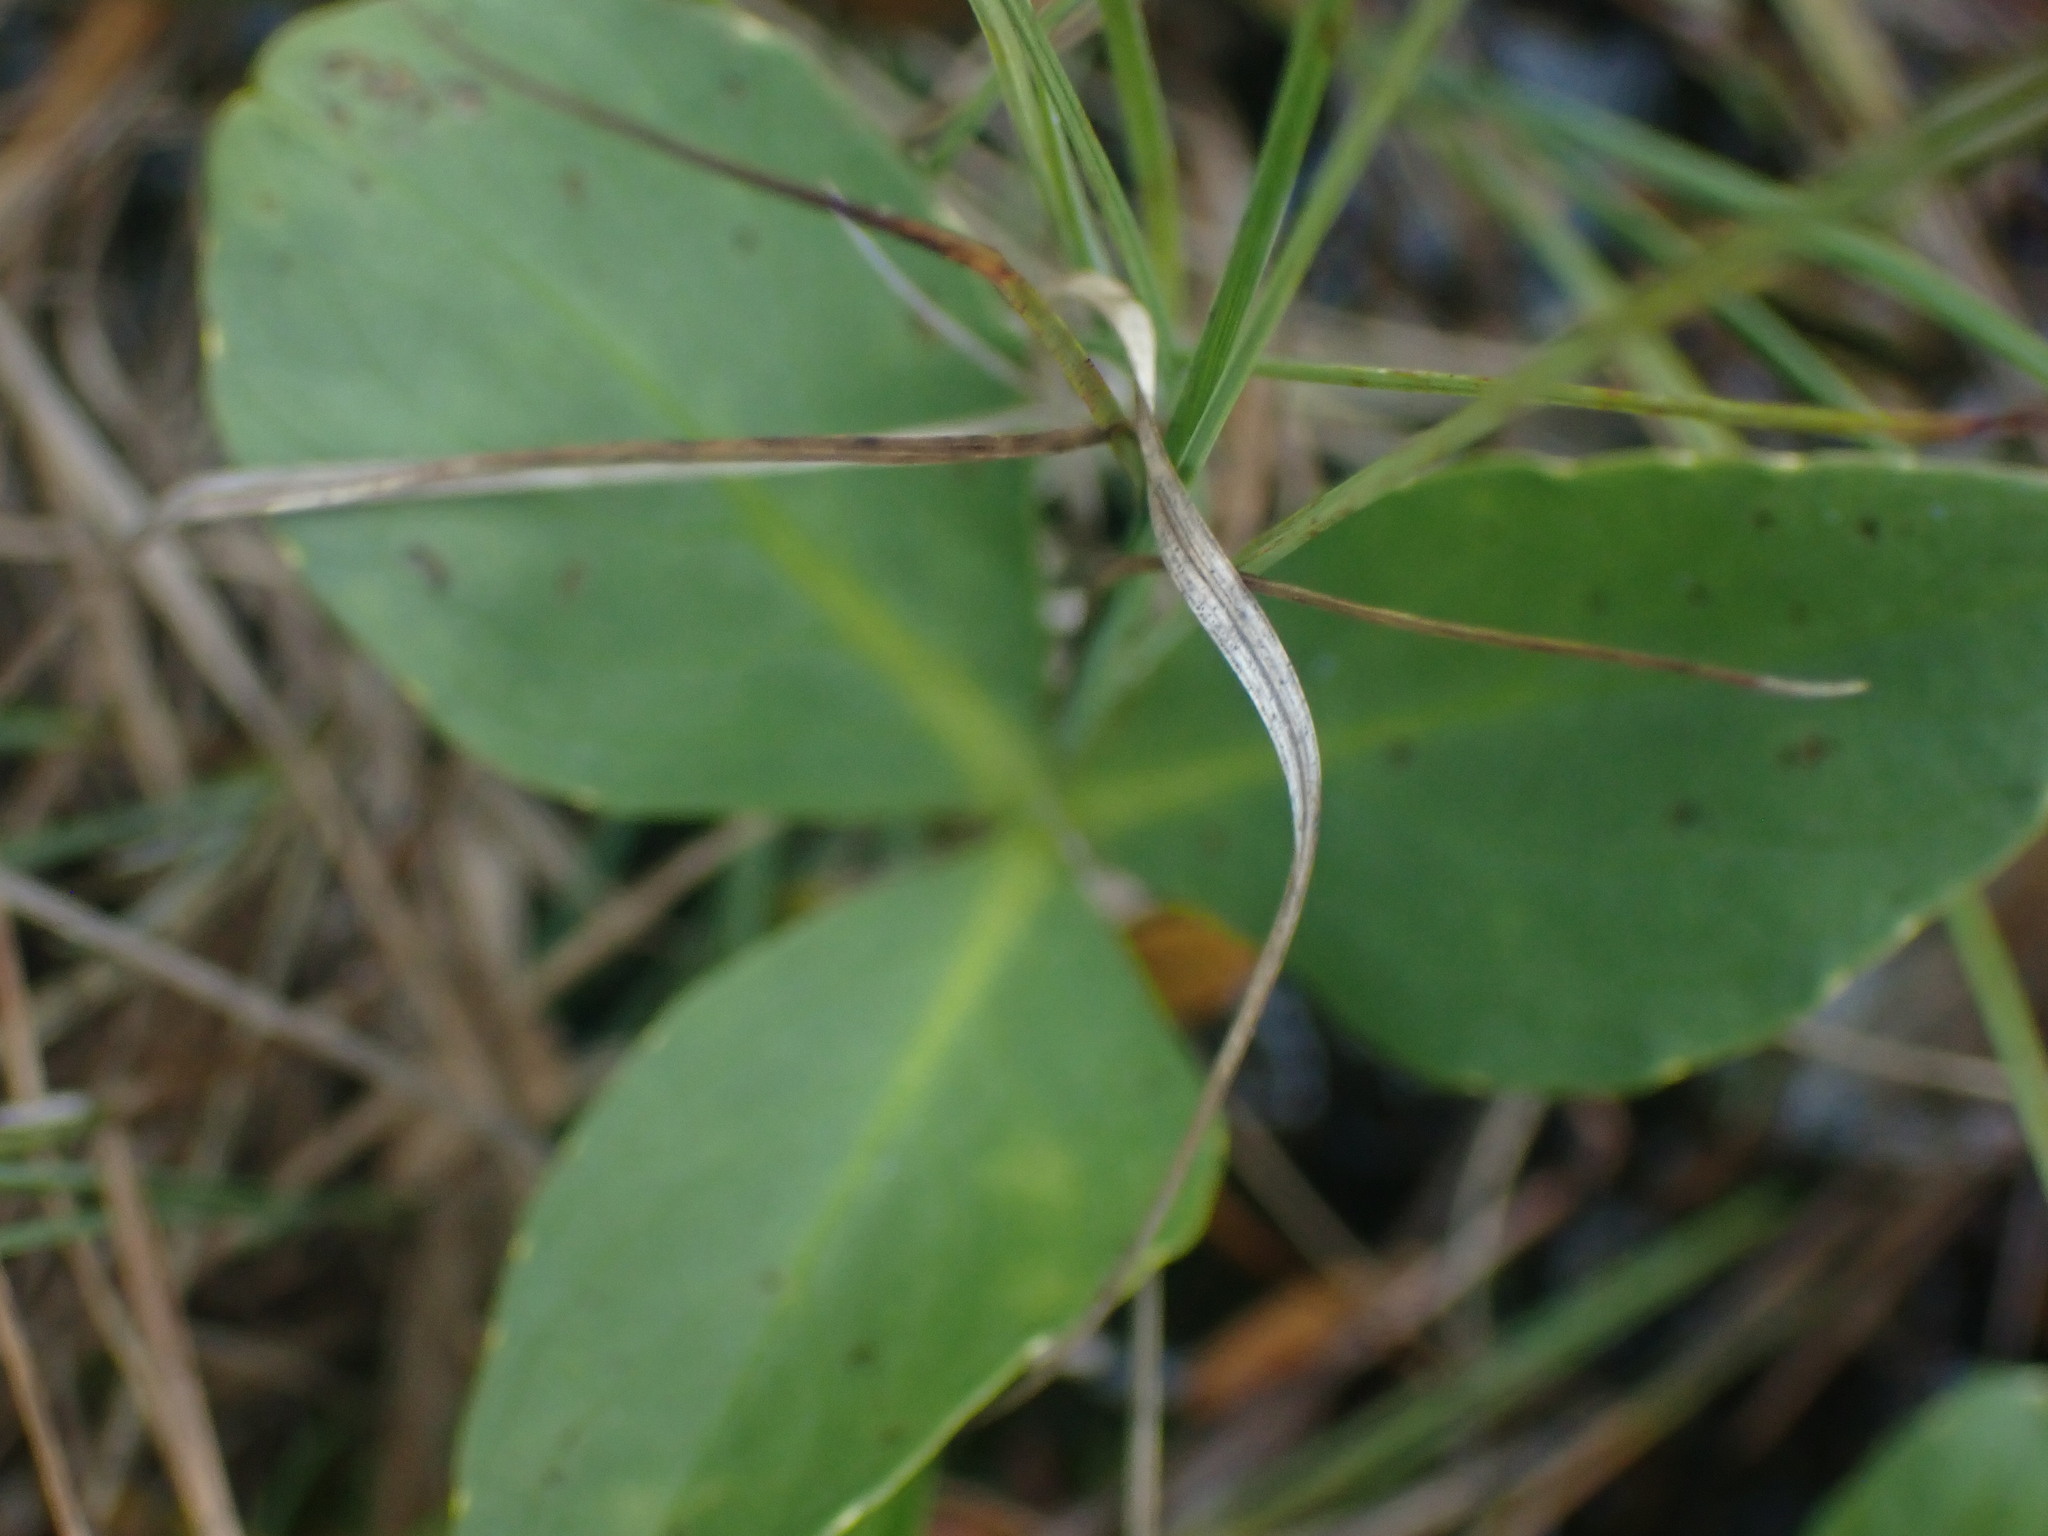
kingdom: Plantae
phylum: Tracheophyta
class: Magnoliopsida
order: Asterales
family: Menyanthaceae
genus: Menyanthes
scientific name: Menyanthes trifoliata
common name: Bogbean
